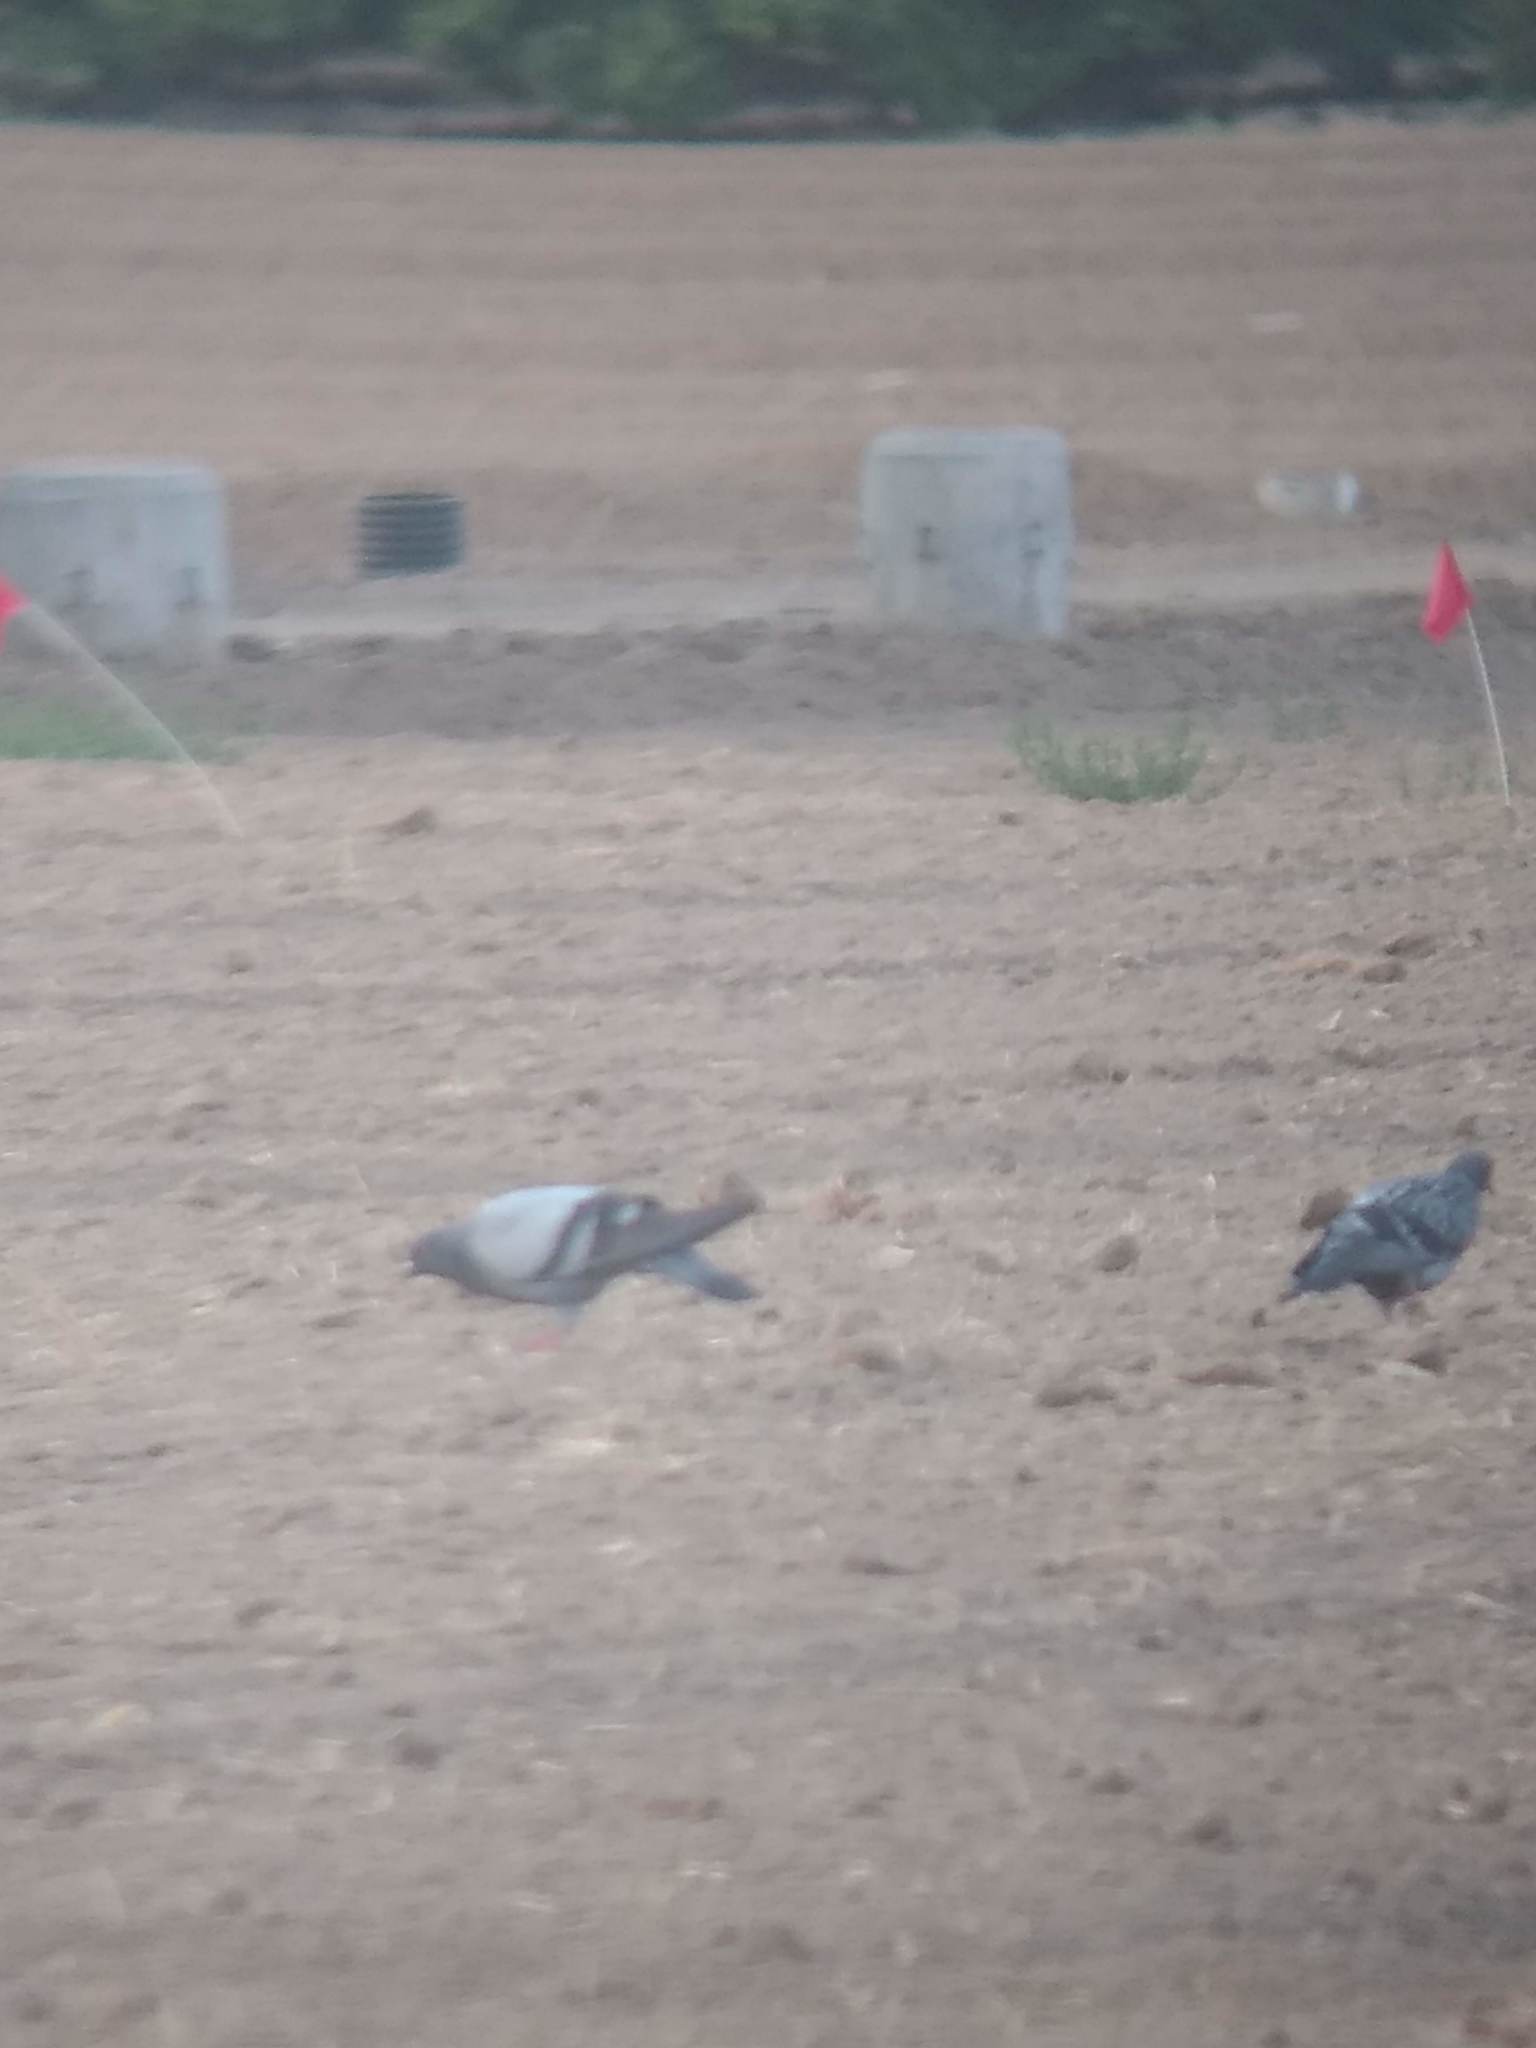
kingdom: Animalia
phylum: Chordata
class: Aves
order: Columbiformes
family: Columbidae
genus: Columba
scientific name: Columba livia
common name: Rock pigeon
